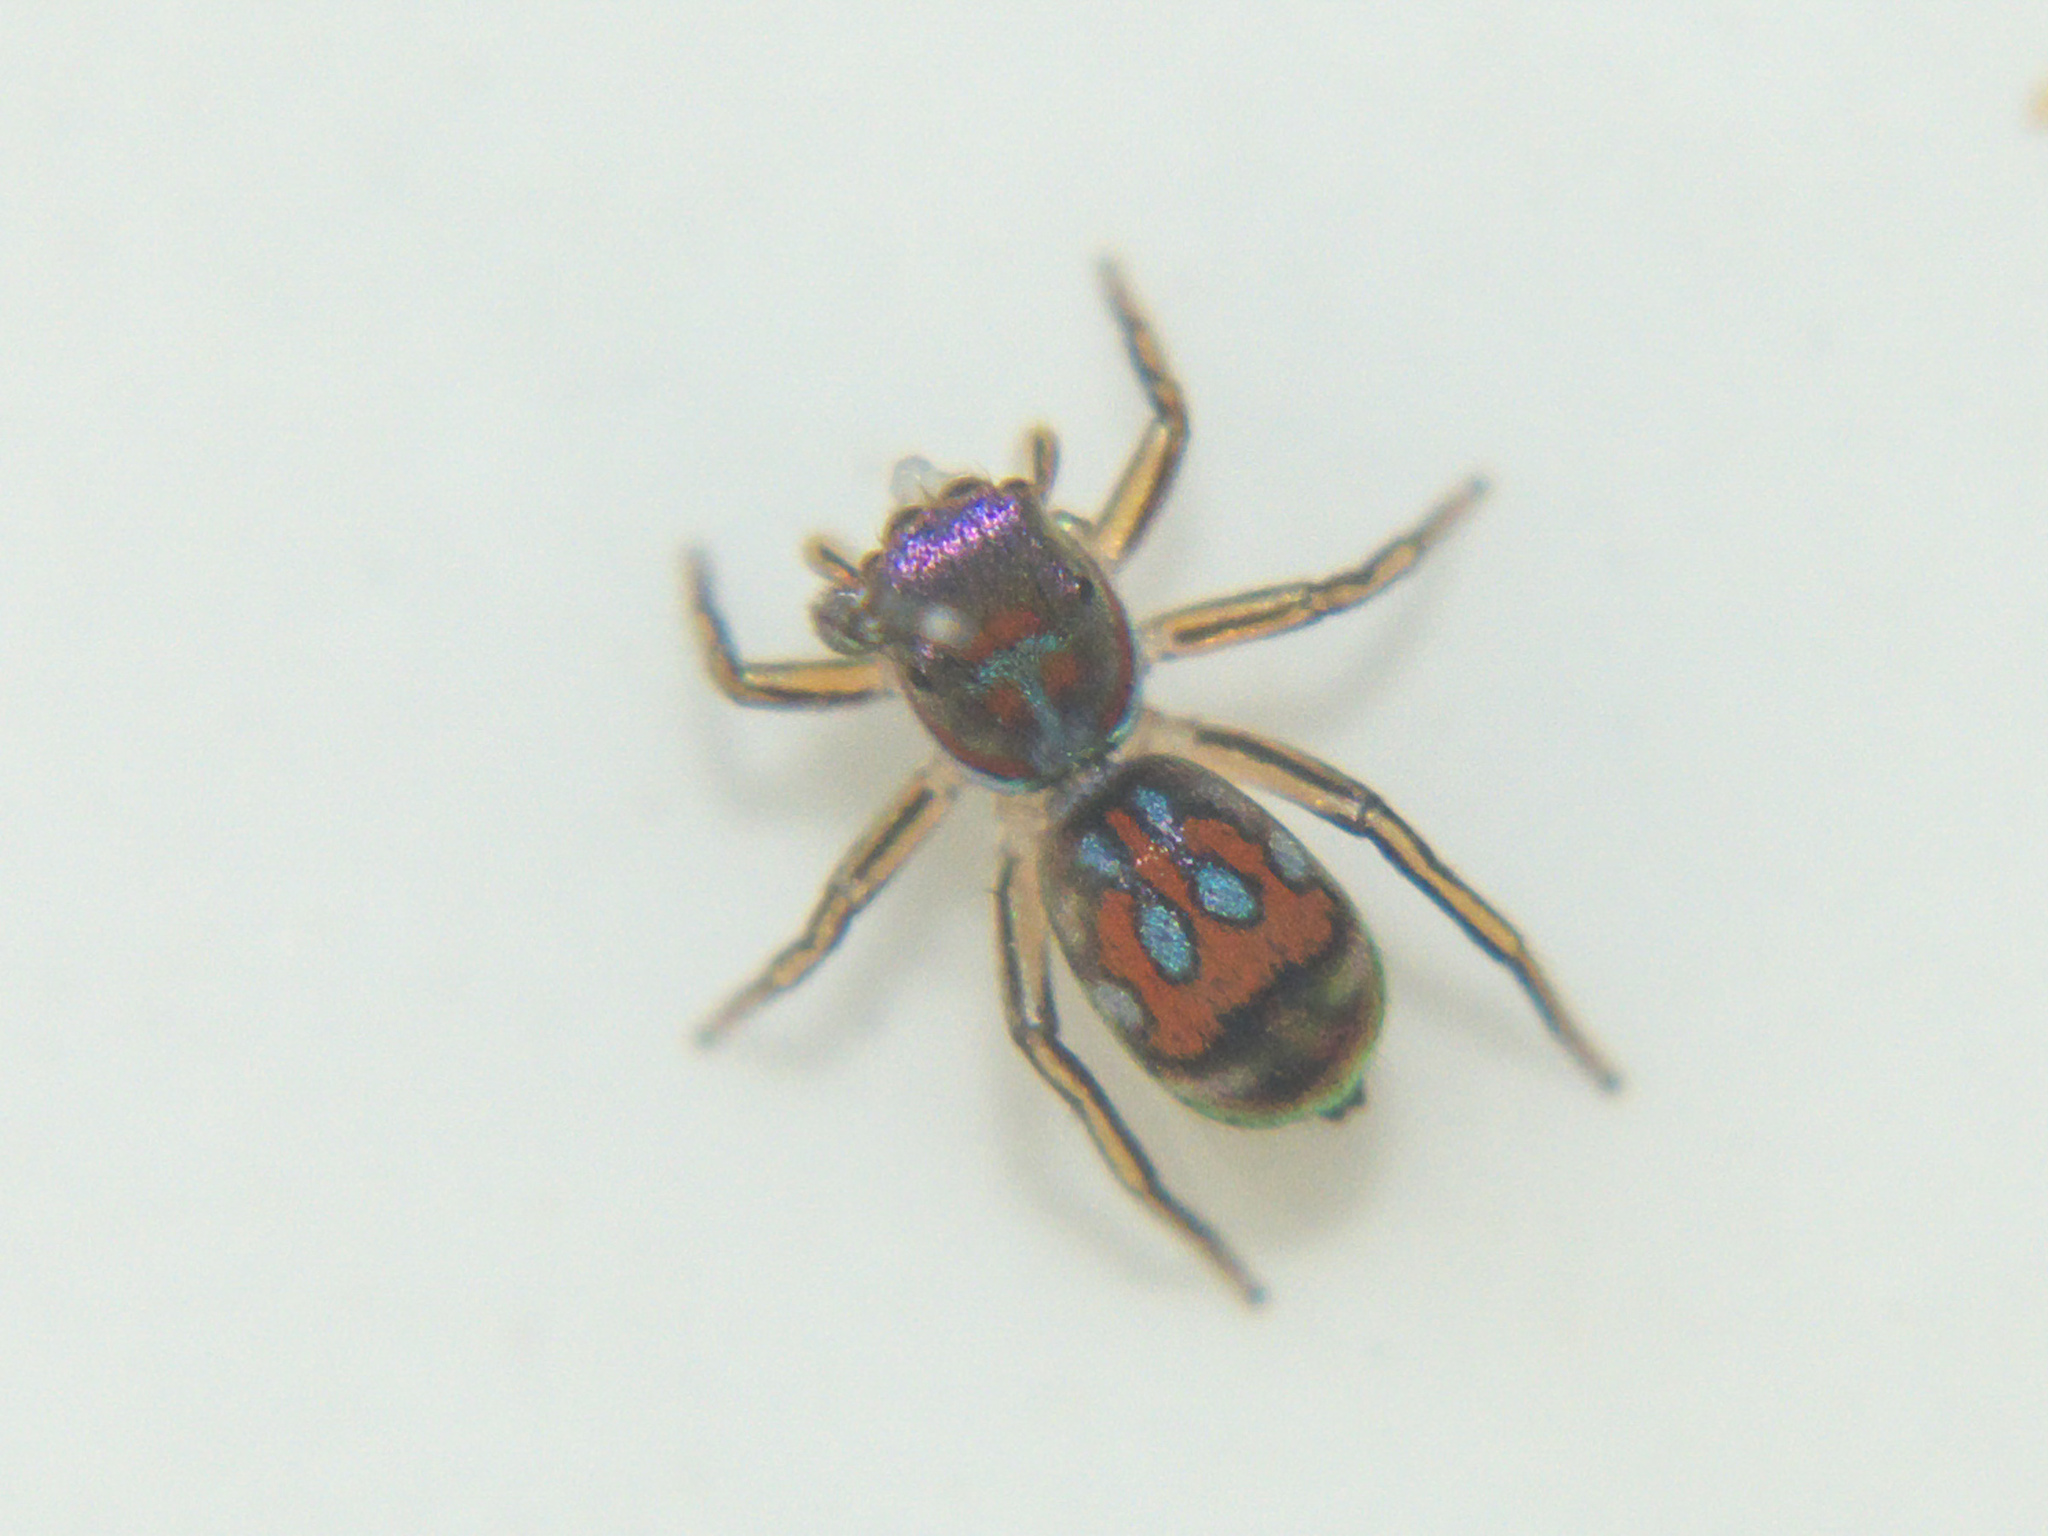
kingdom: Animalia
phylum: Arthropoda
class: Arachnida
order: Araneae
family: Salticidae
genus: Siler
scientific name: Siler semiglaucus
